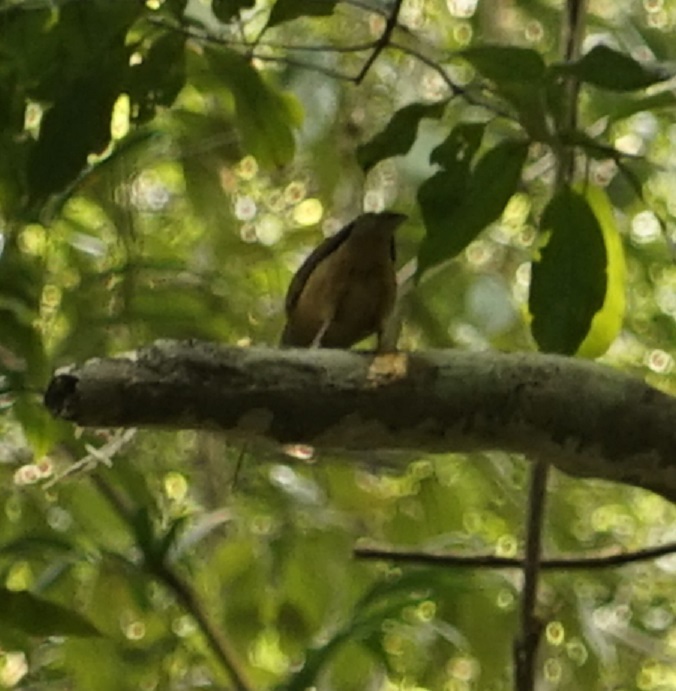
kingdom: Animalia
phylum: Chordata
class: Aves
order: Passeriformes
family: Pachycephalidae
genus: Colluricincla
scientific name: Colluricincla rufogaster
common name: Rufous shrikethrush
